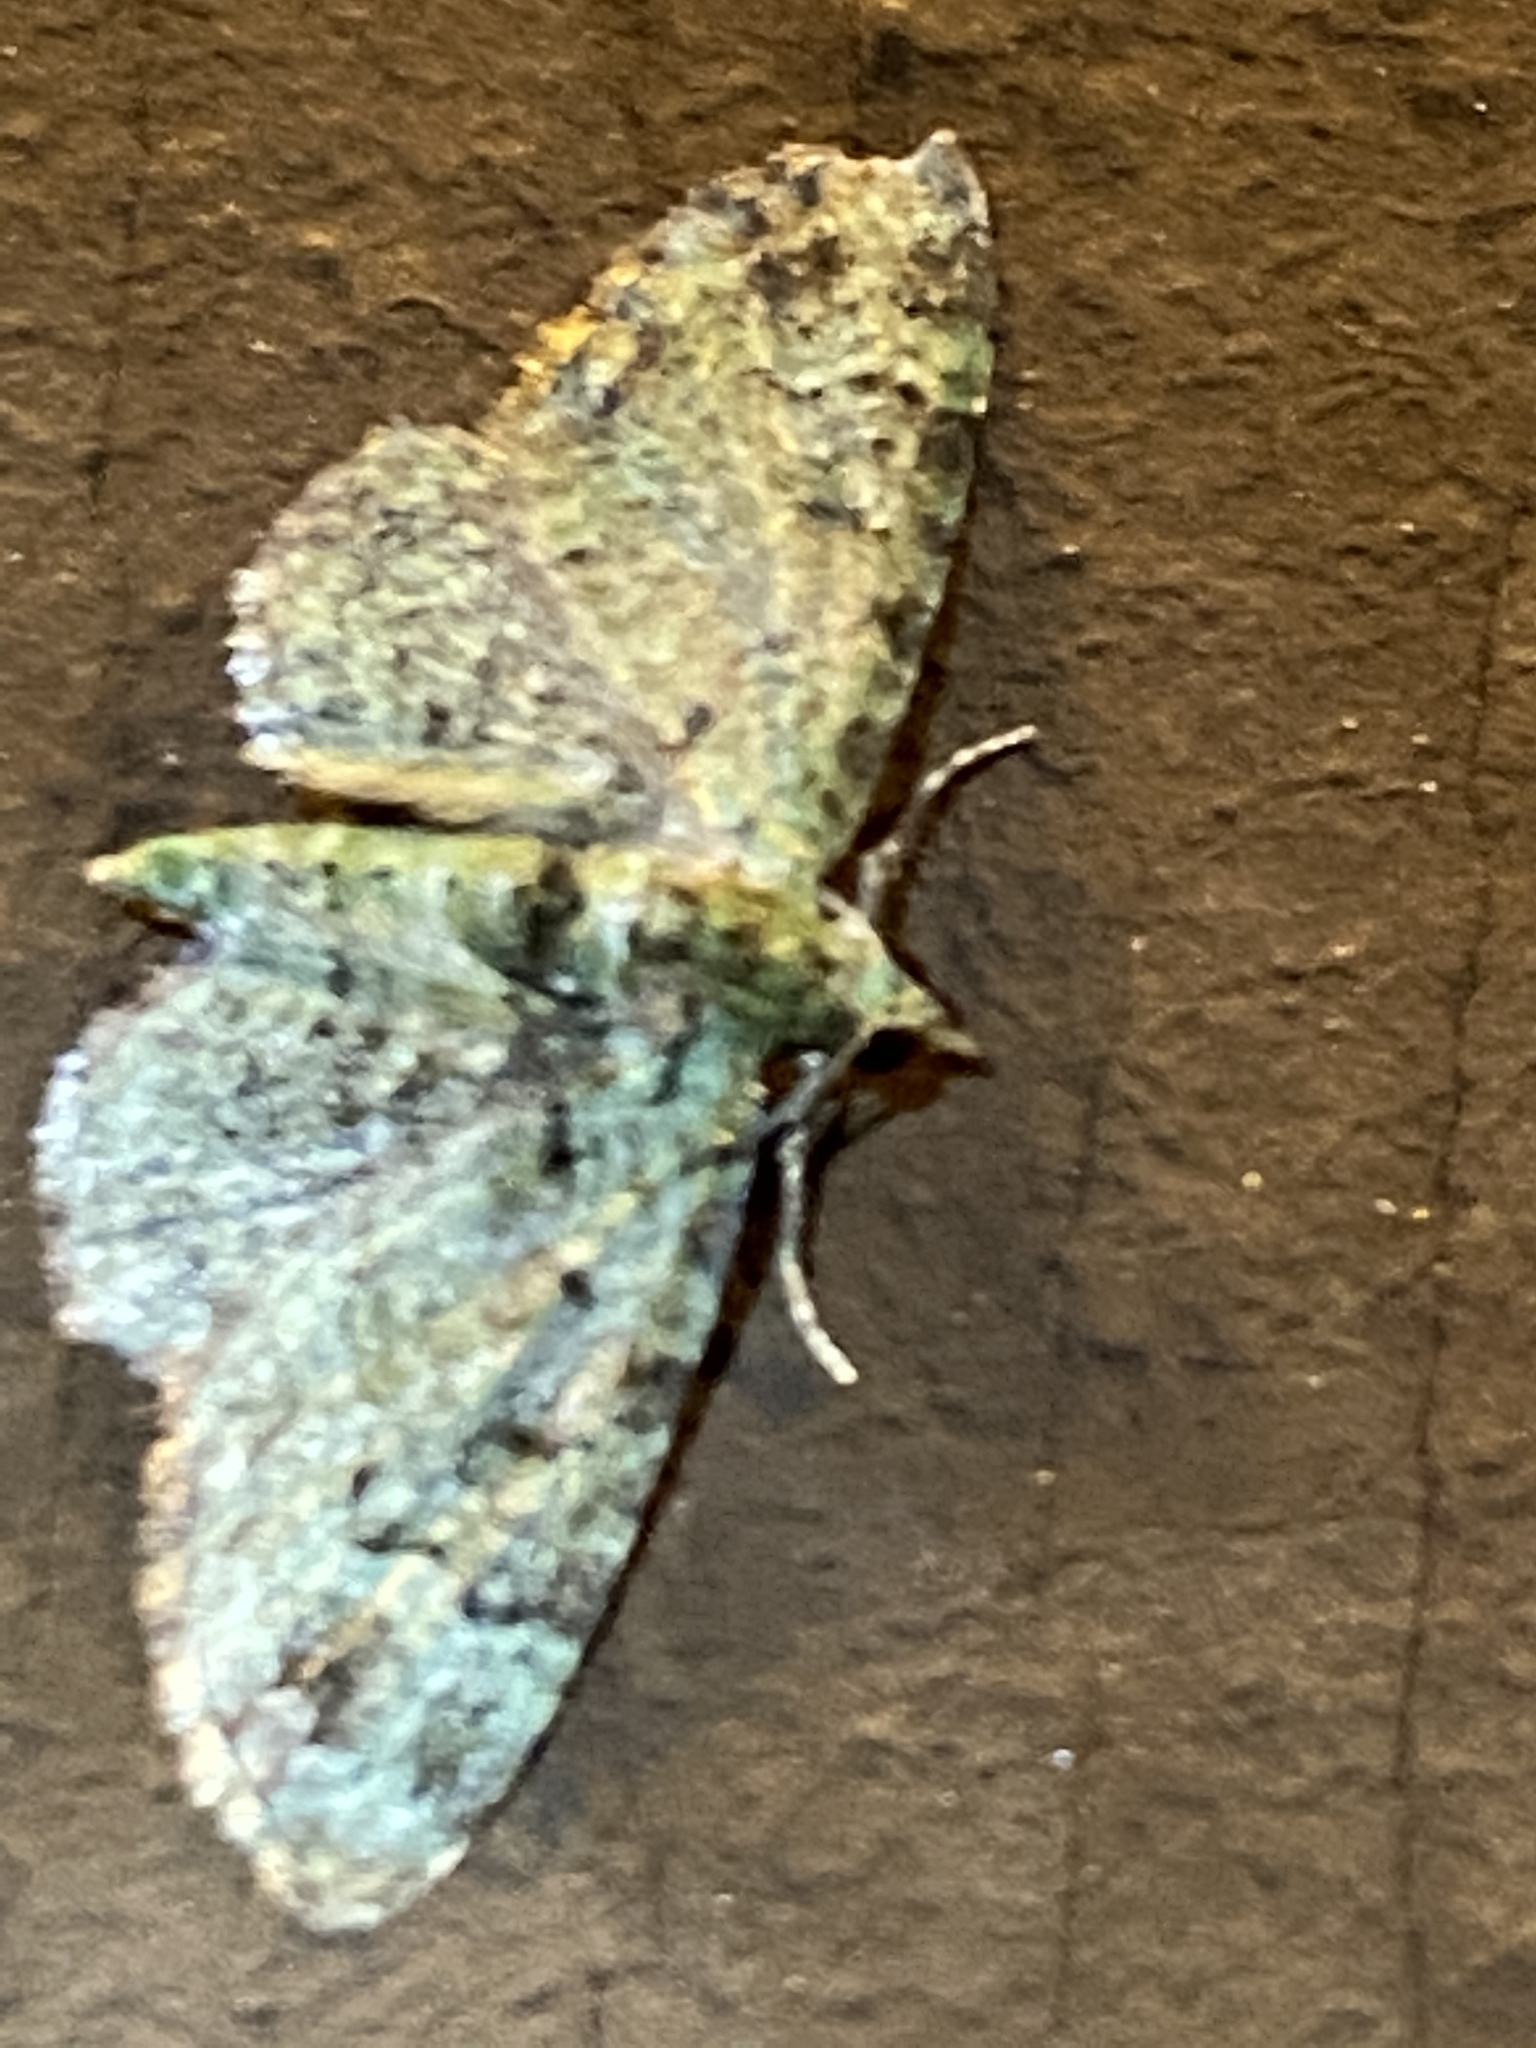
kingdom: Animalia
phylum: Arthropoda
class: Insecta
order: Lepidoptera
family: Geometridae
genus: Pasiphila
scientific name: Pasiphila rectangulata
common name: Green pug
